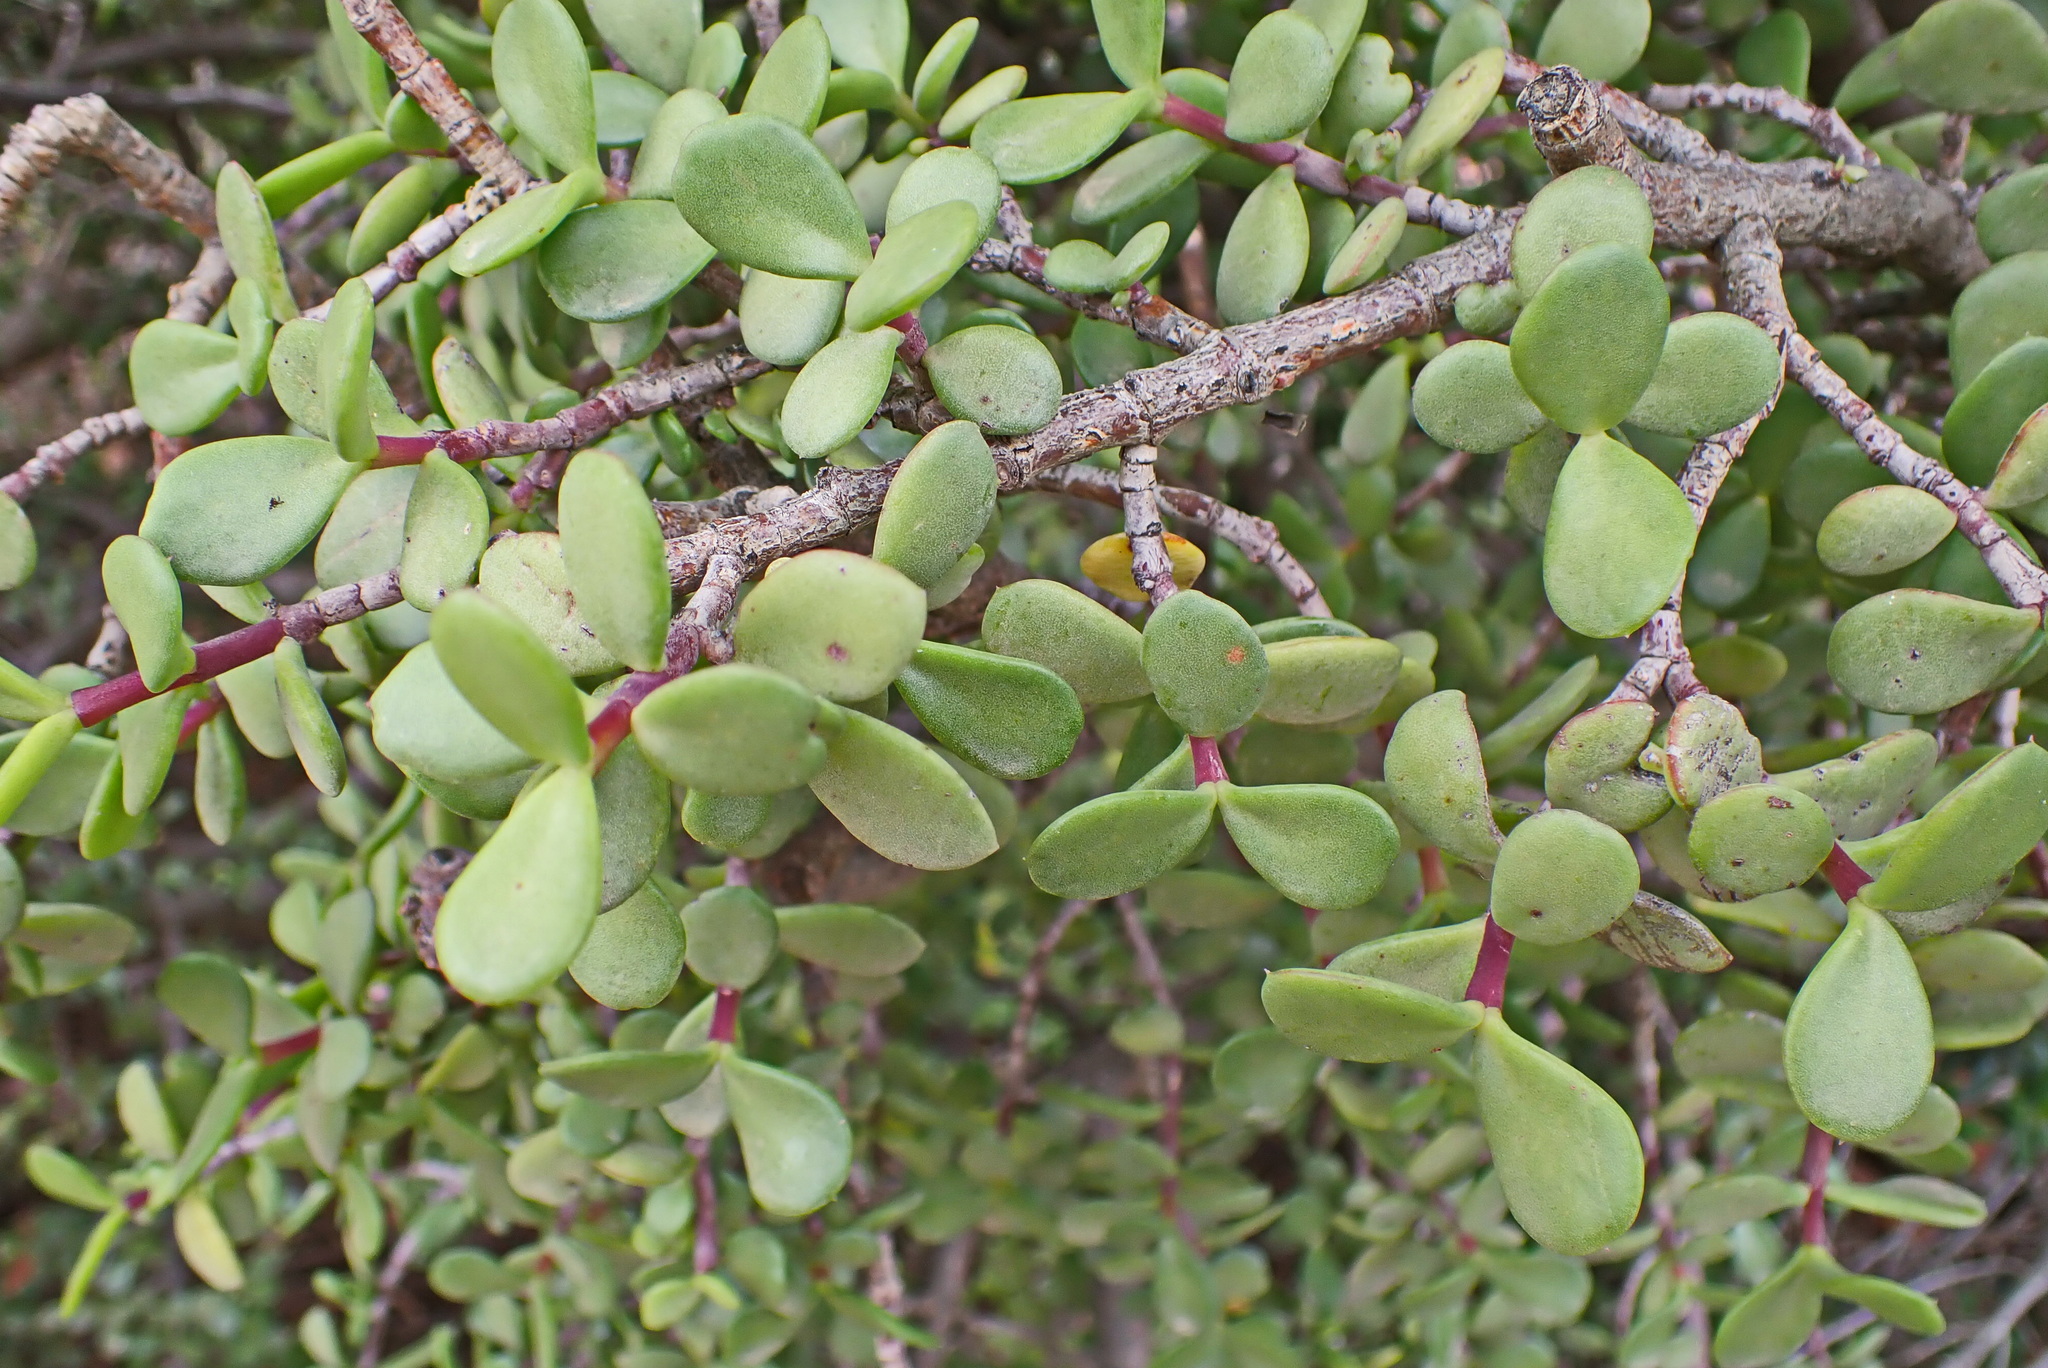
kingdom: Plantae
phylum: Tracheophyta
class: Magnoliopsida
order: Caryophyllales
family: Didiereaceae
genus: Portulacaria
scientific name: Portulacaria afra
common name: Elephant-bush
